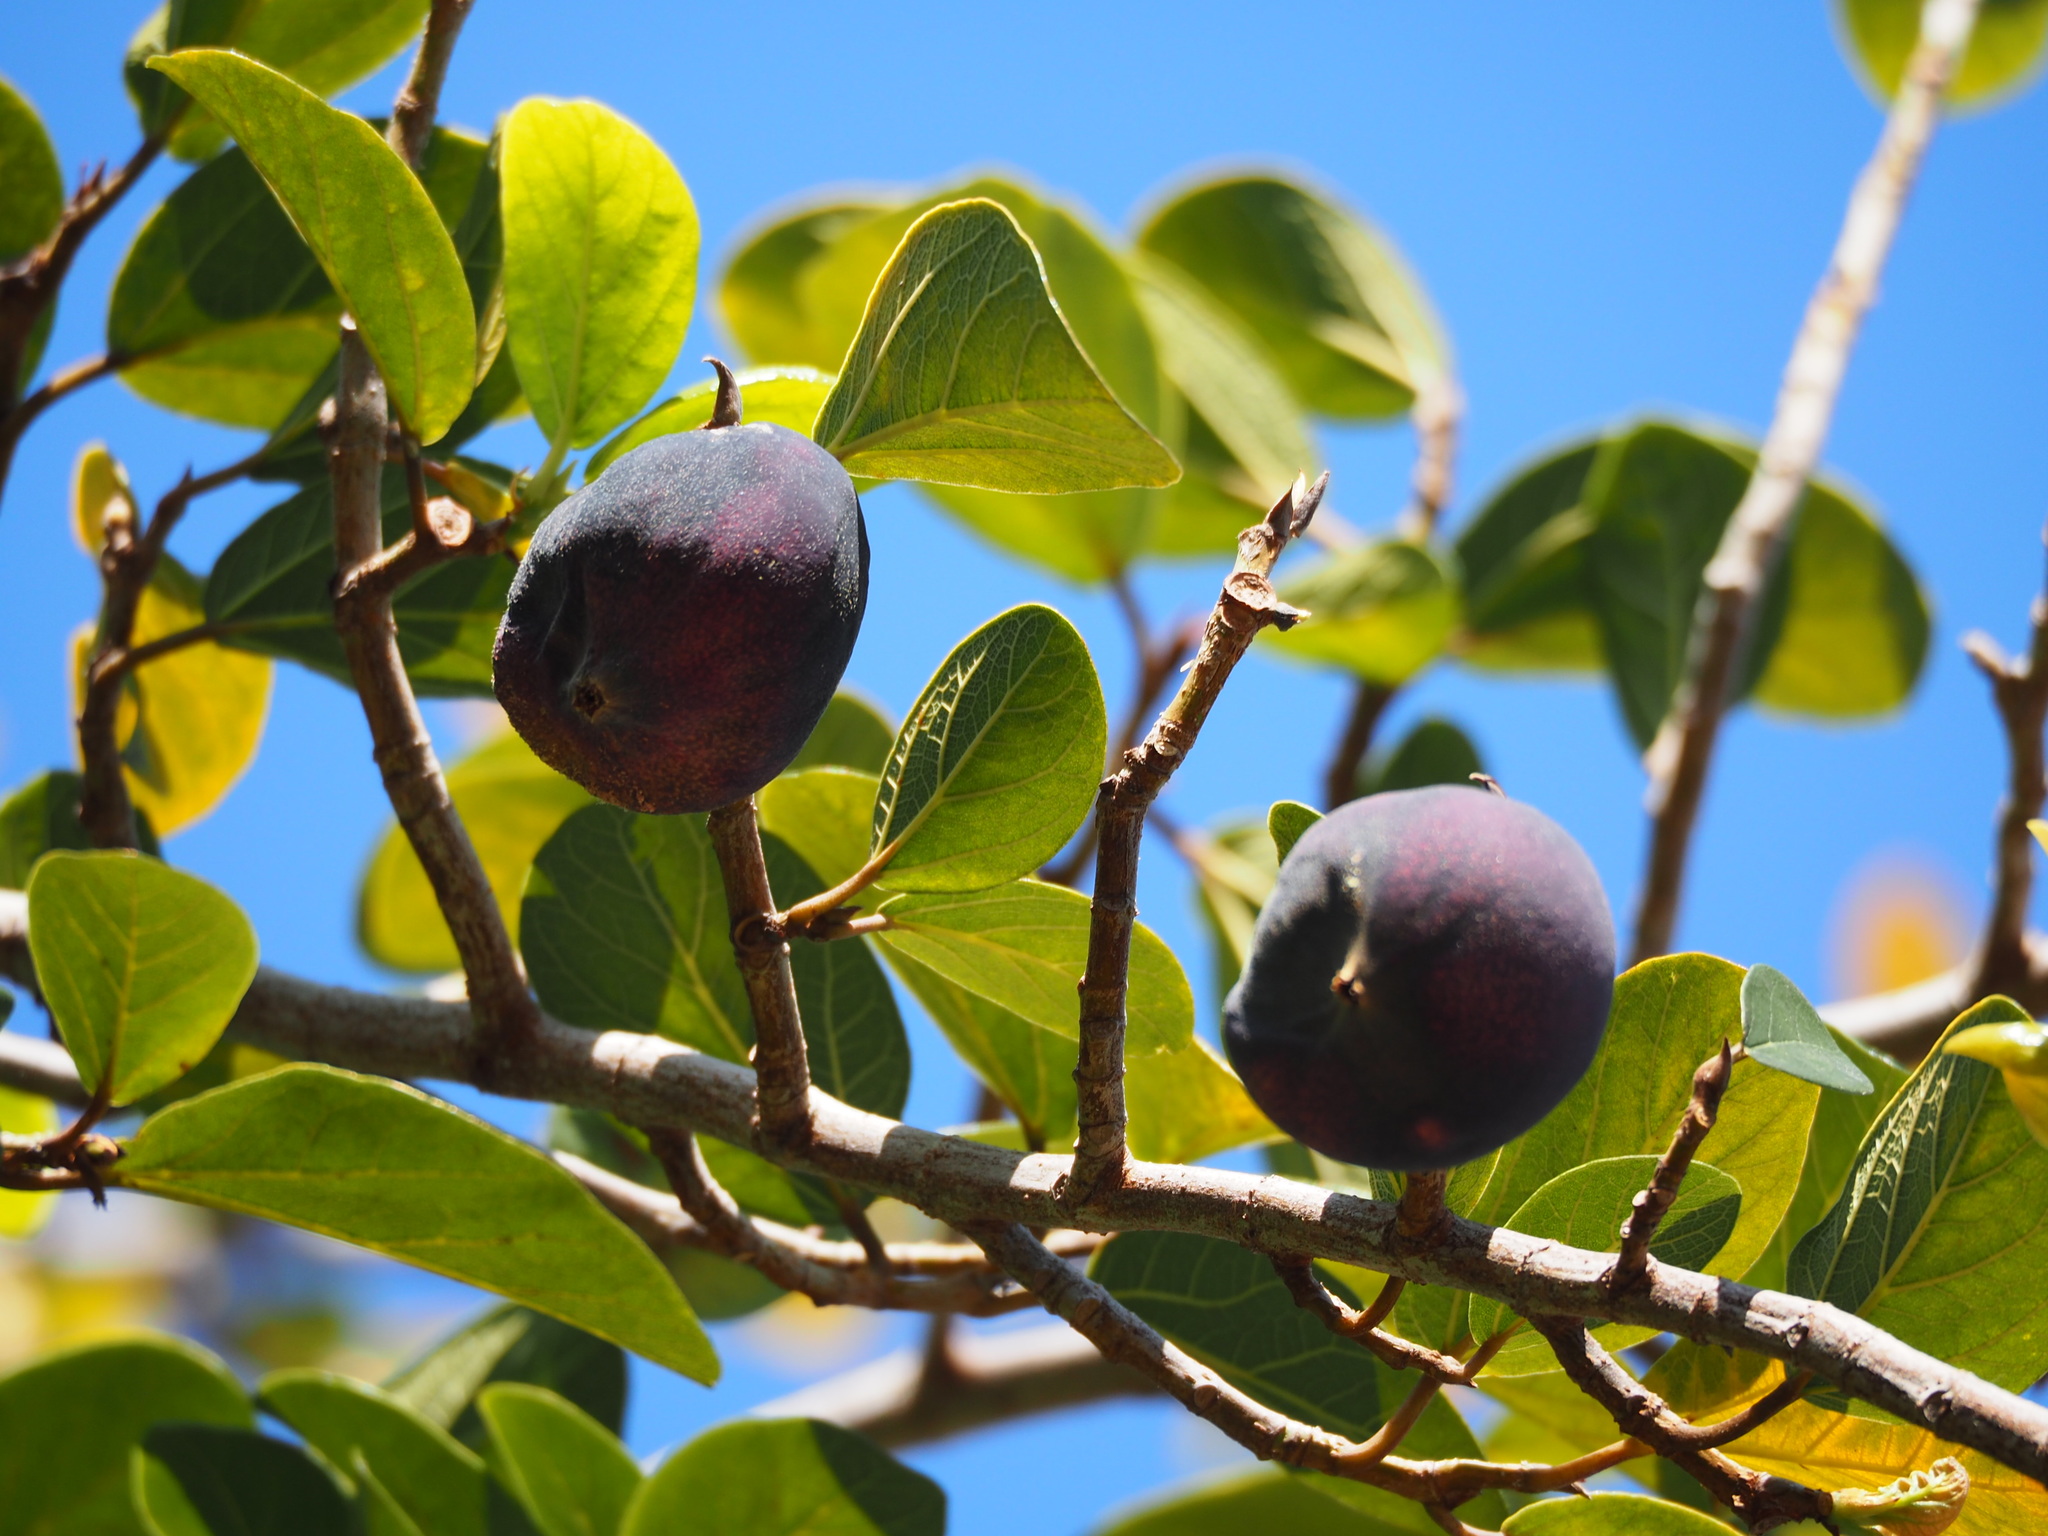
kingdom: Plantae
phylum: Tracheophyta
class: Magnoliopsida
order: Rosales
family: Moraceae
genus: Ficus
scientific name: Ficus pumila
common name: Climbingfig
